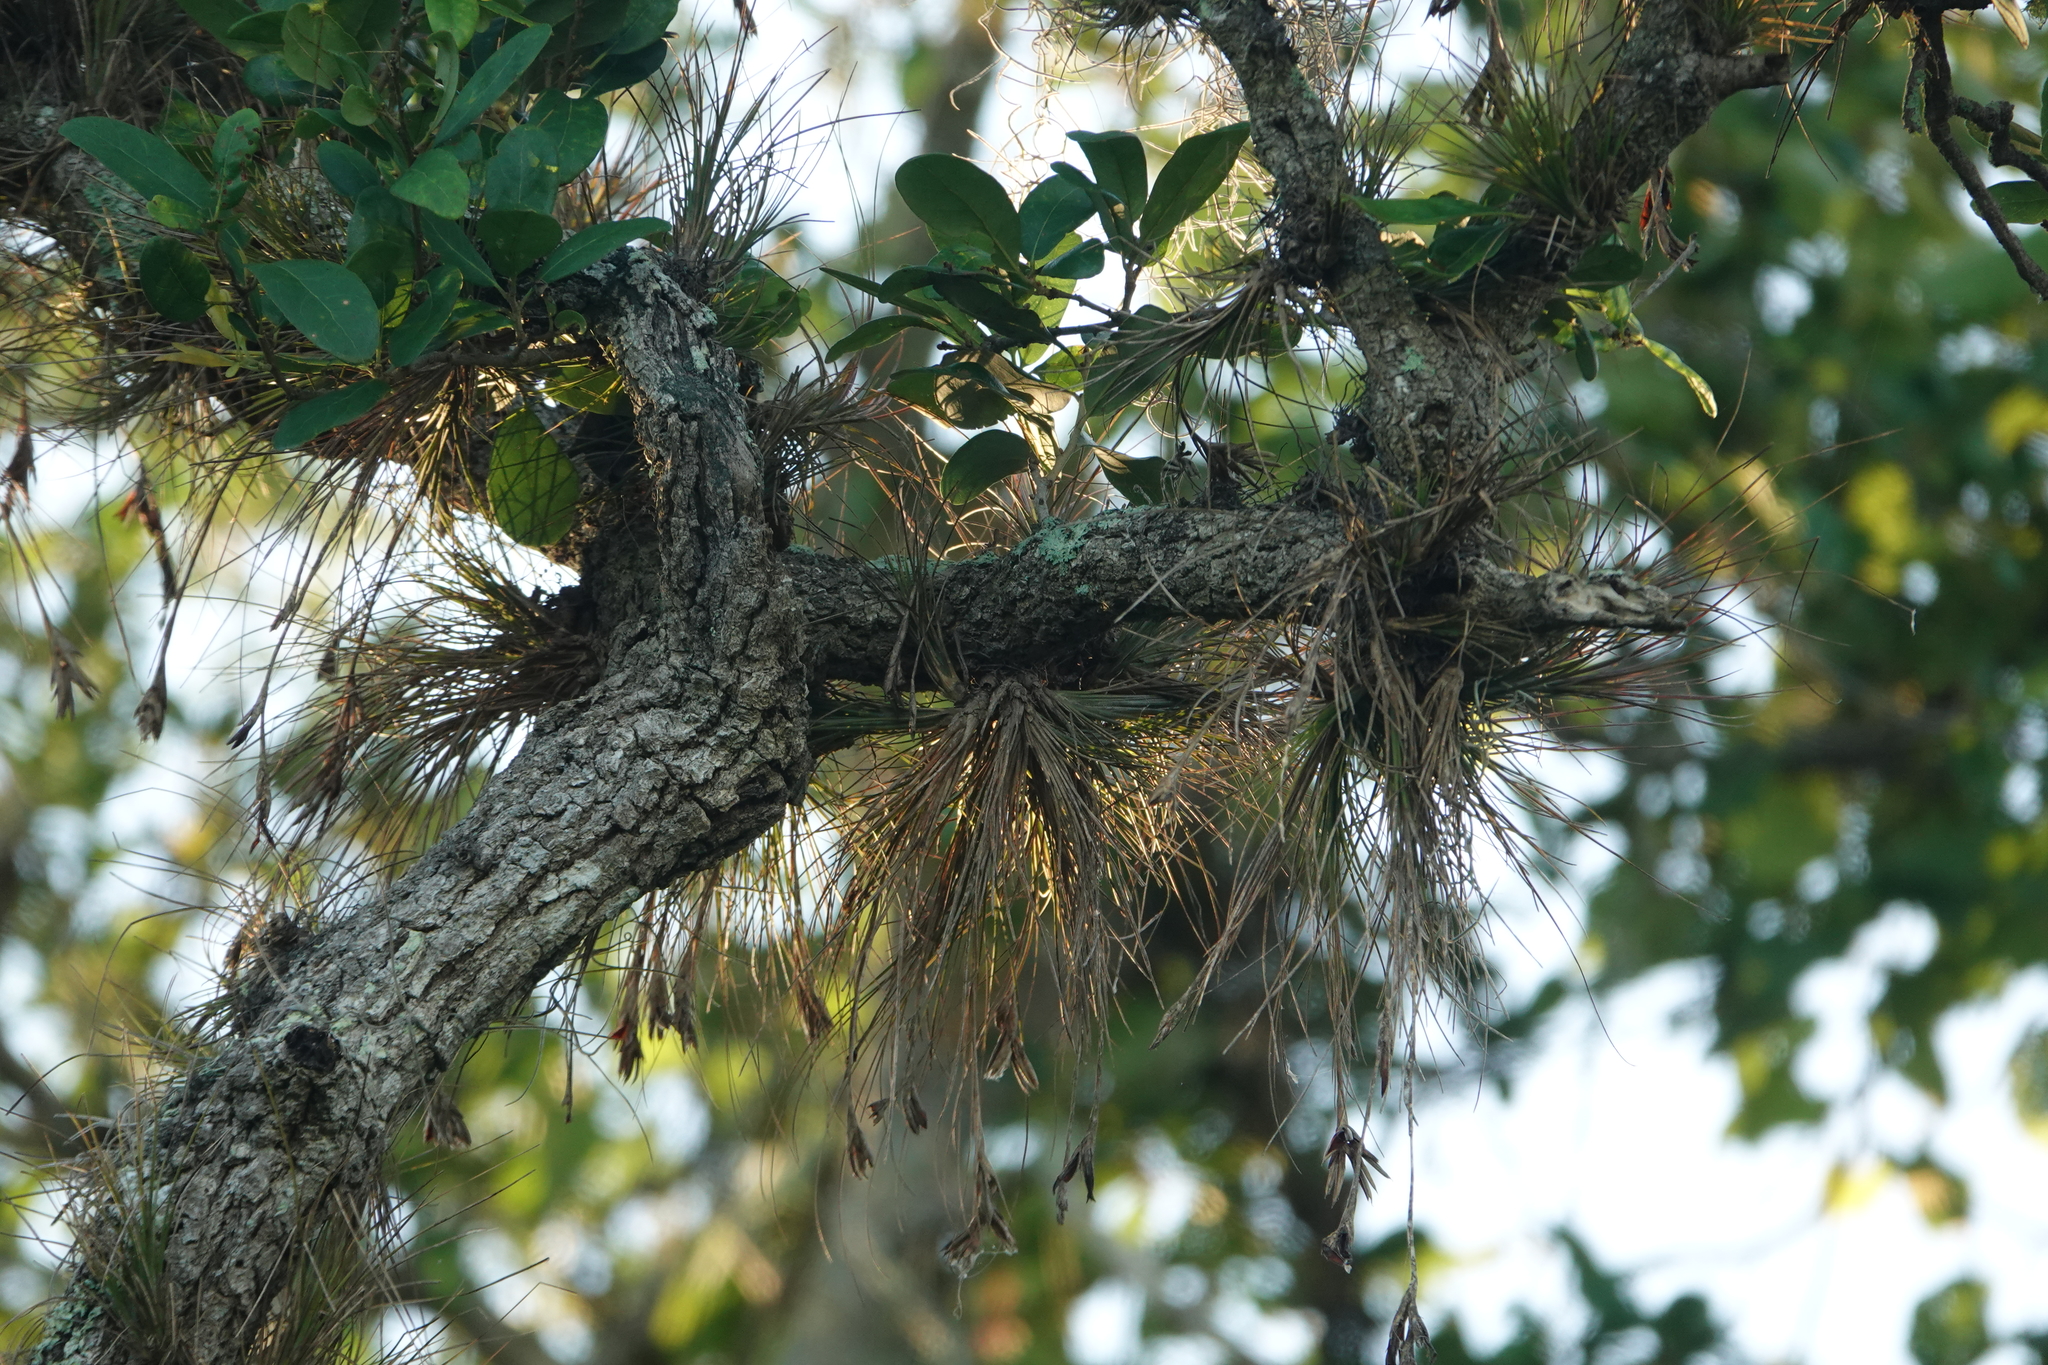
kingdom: Plantae
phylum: Tracheophyta
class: Liliopsida
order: Poales
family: Bromeliaceae
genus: Tillandsia
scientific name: Tillandsia setacea
